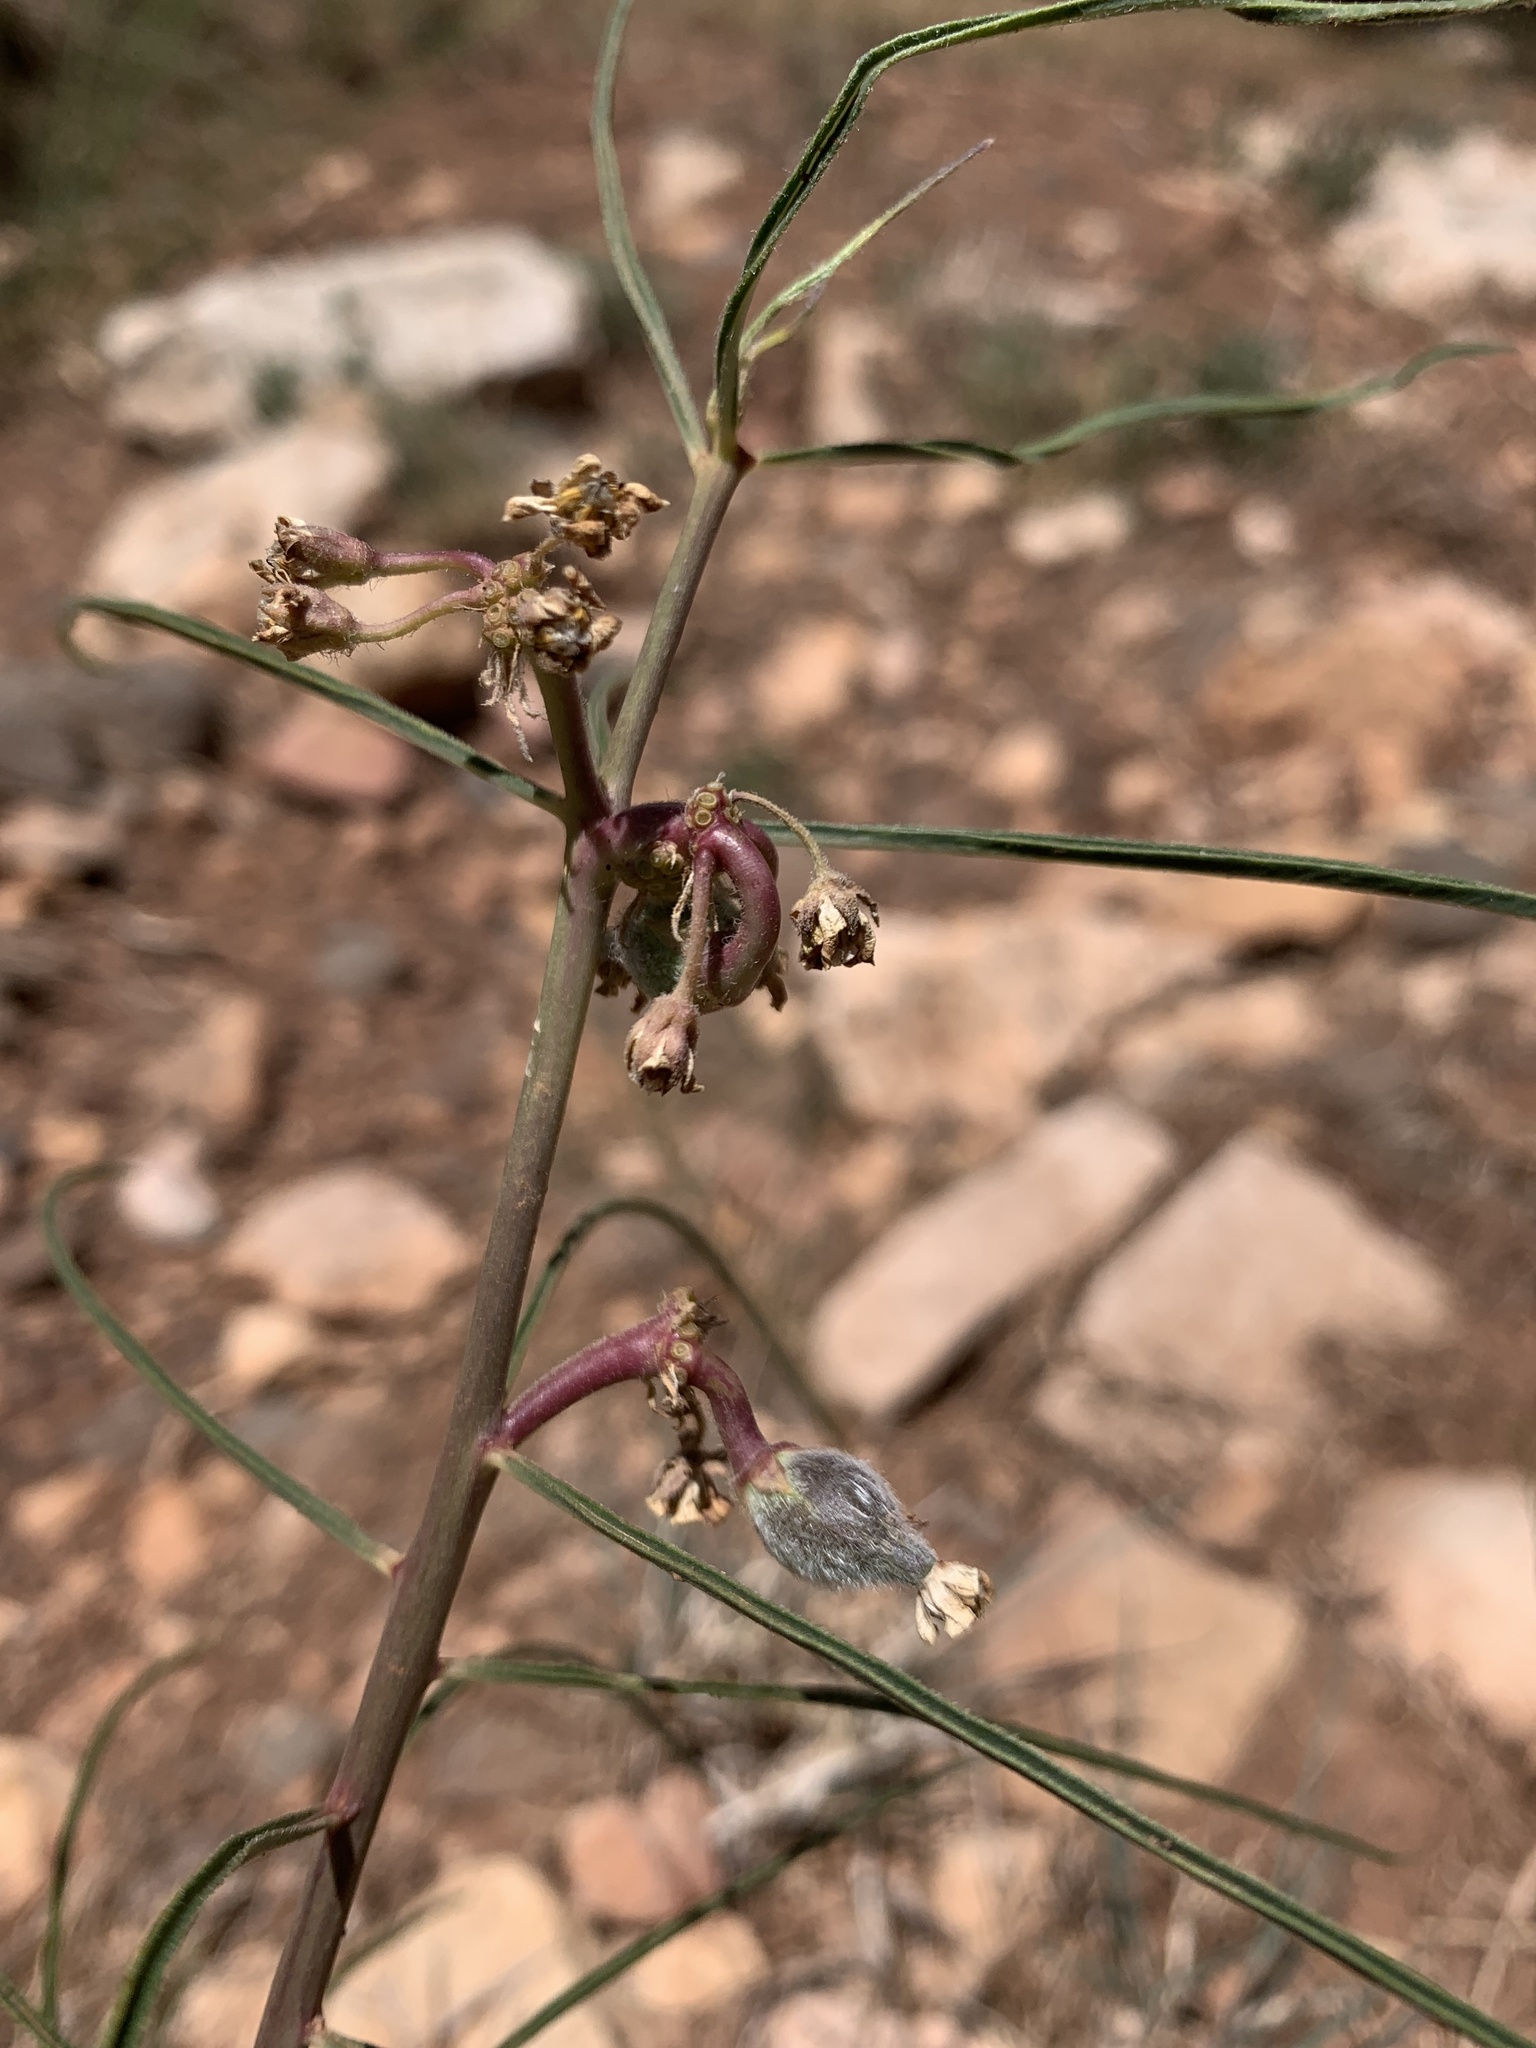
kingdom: Plantae
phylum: Tracheophyta
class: Magnoliopsida
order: Gentianales
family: Apocynaceae
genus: Asclepias
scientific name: Asclepias rusbyi
